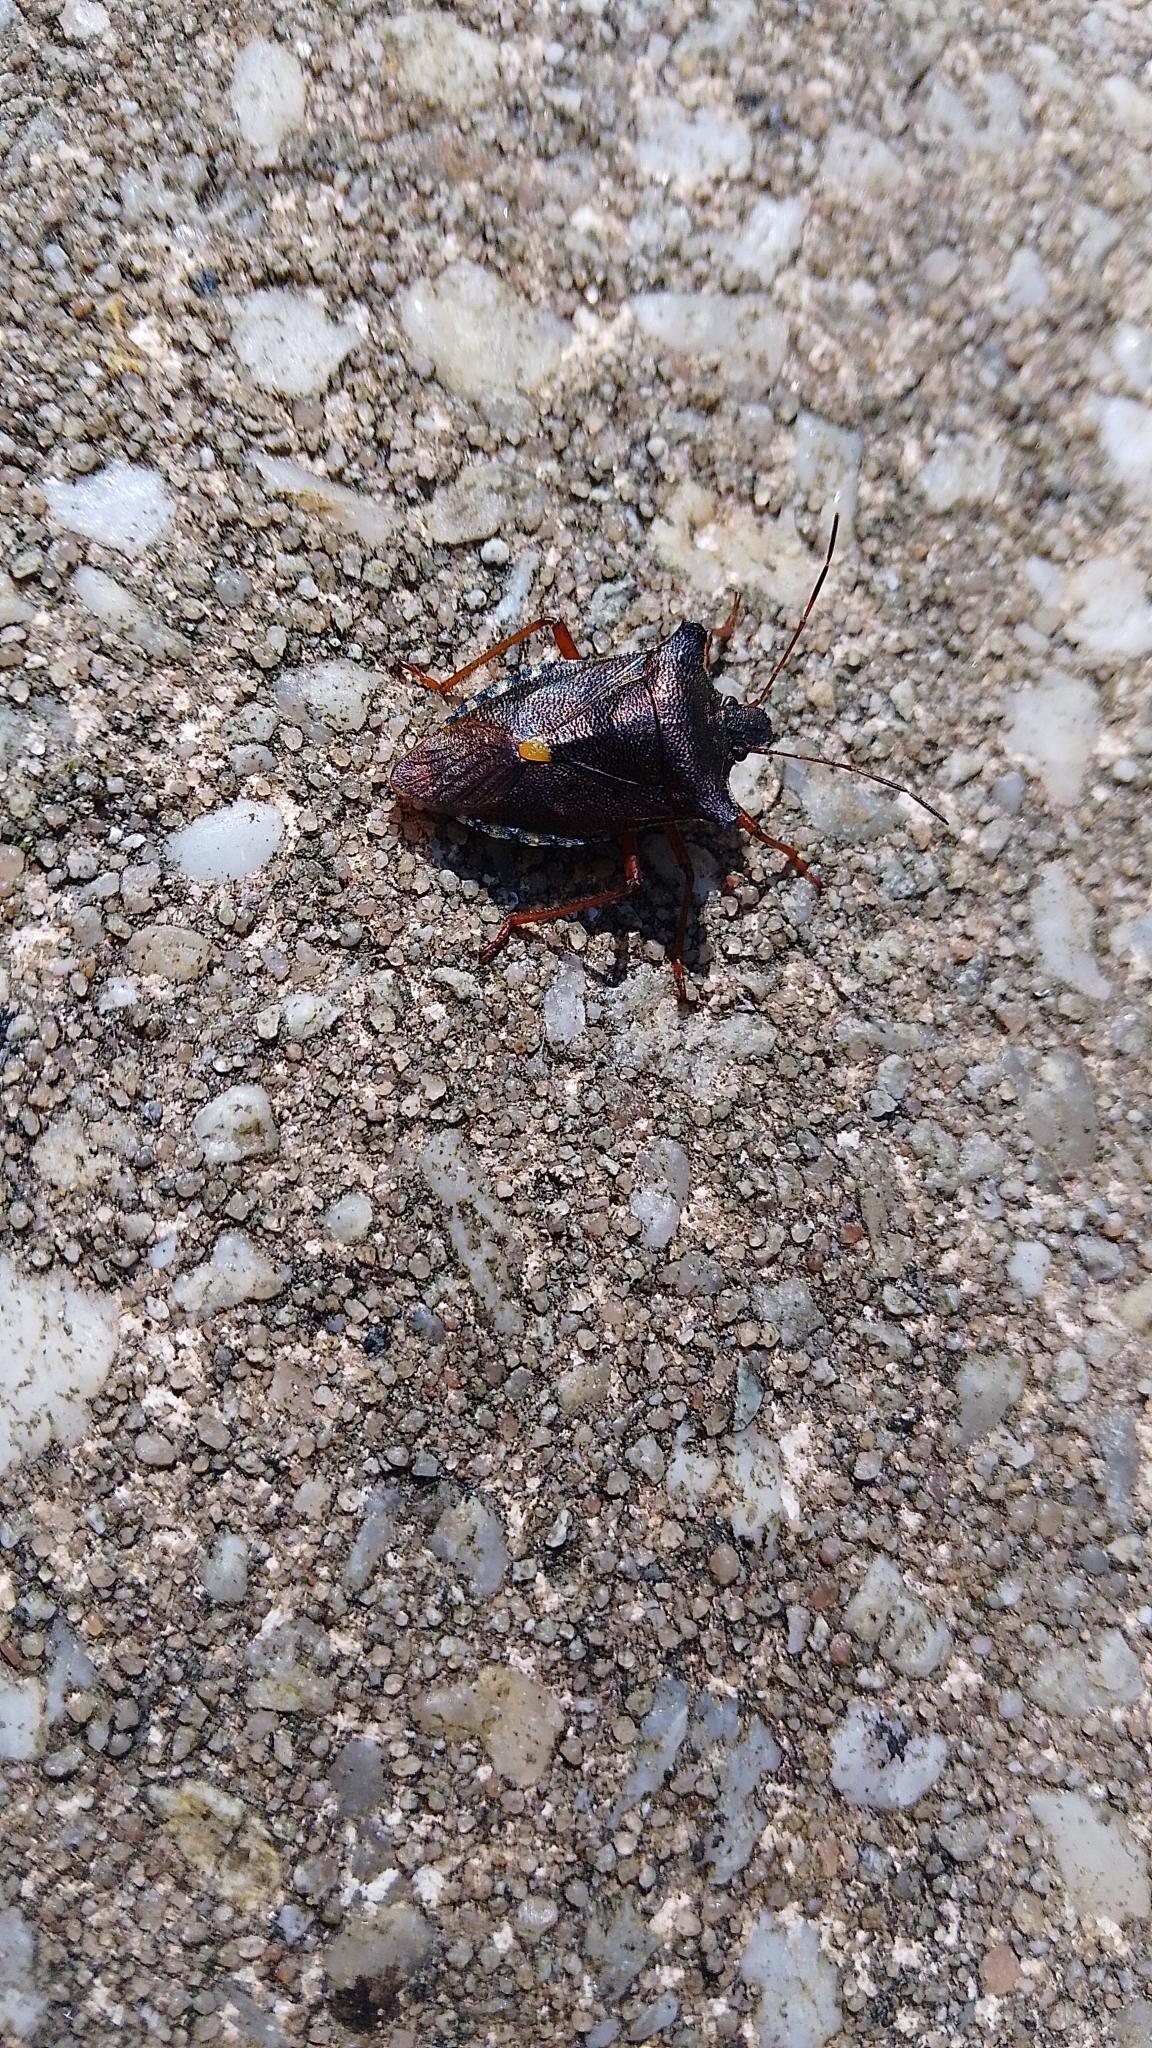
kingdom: Animalia
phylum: Arthropoda
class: Insecta
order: Hemiptera
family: Pentatomidae
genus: Pentatoma
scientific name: Pentatoma rufipes
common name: Forest bug
